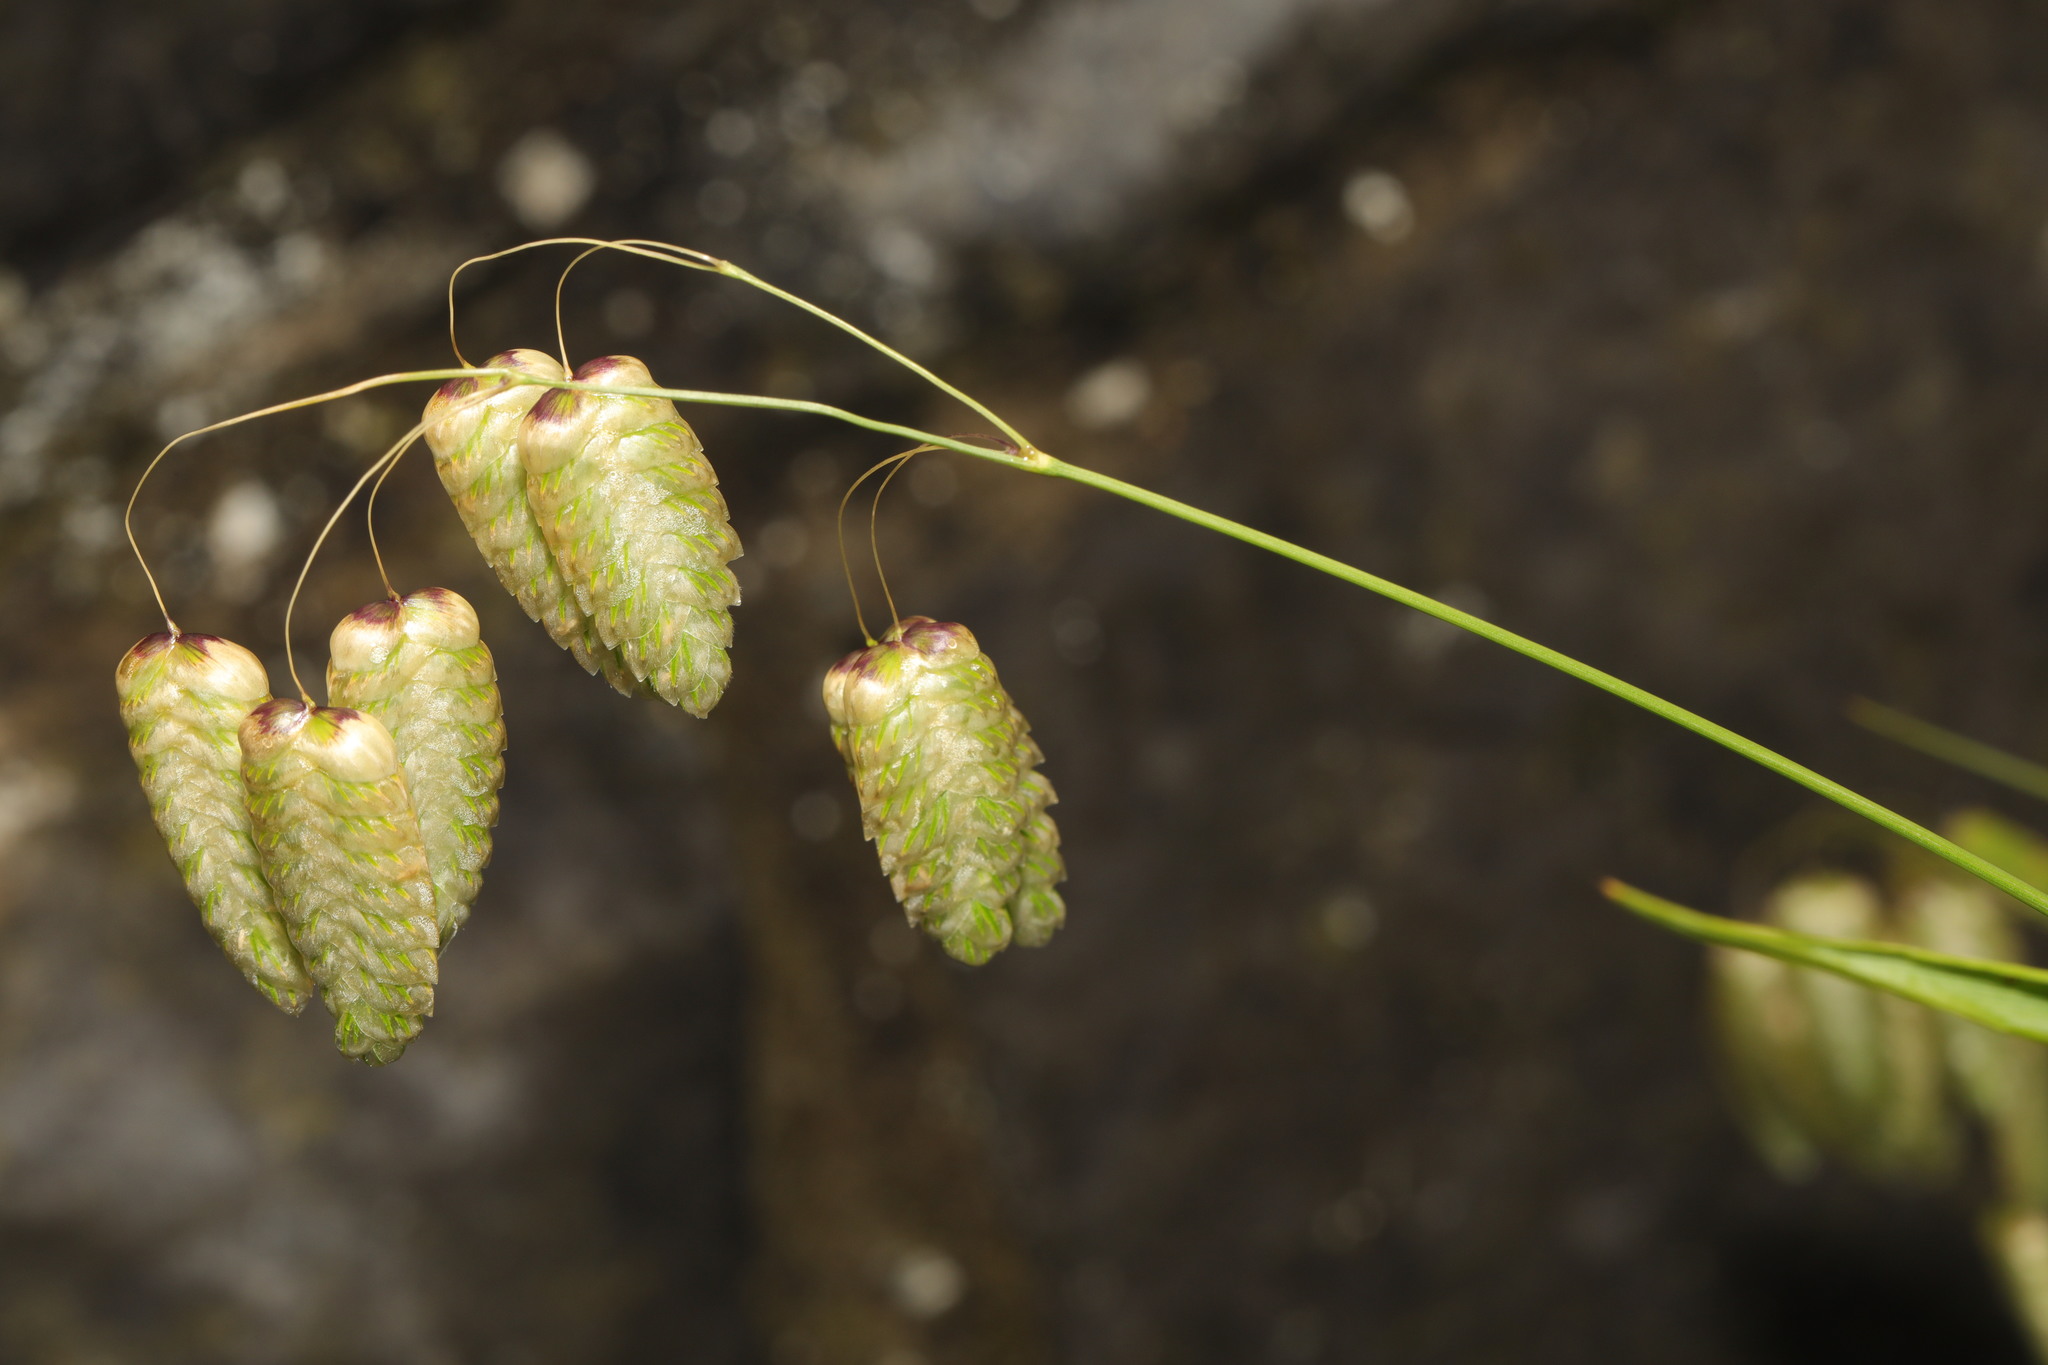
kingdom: Plantae
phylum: Tracheophyta
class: Liliopsida
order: Poales
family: Poaceae
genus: Briza
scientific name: Briza maxima
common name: Big quakinggrass
